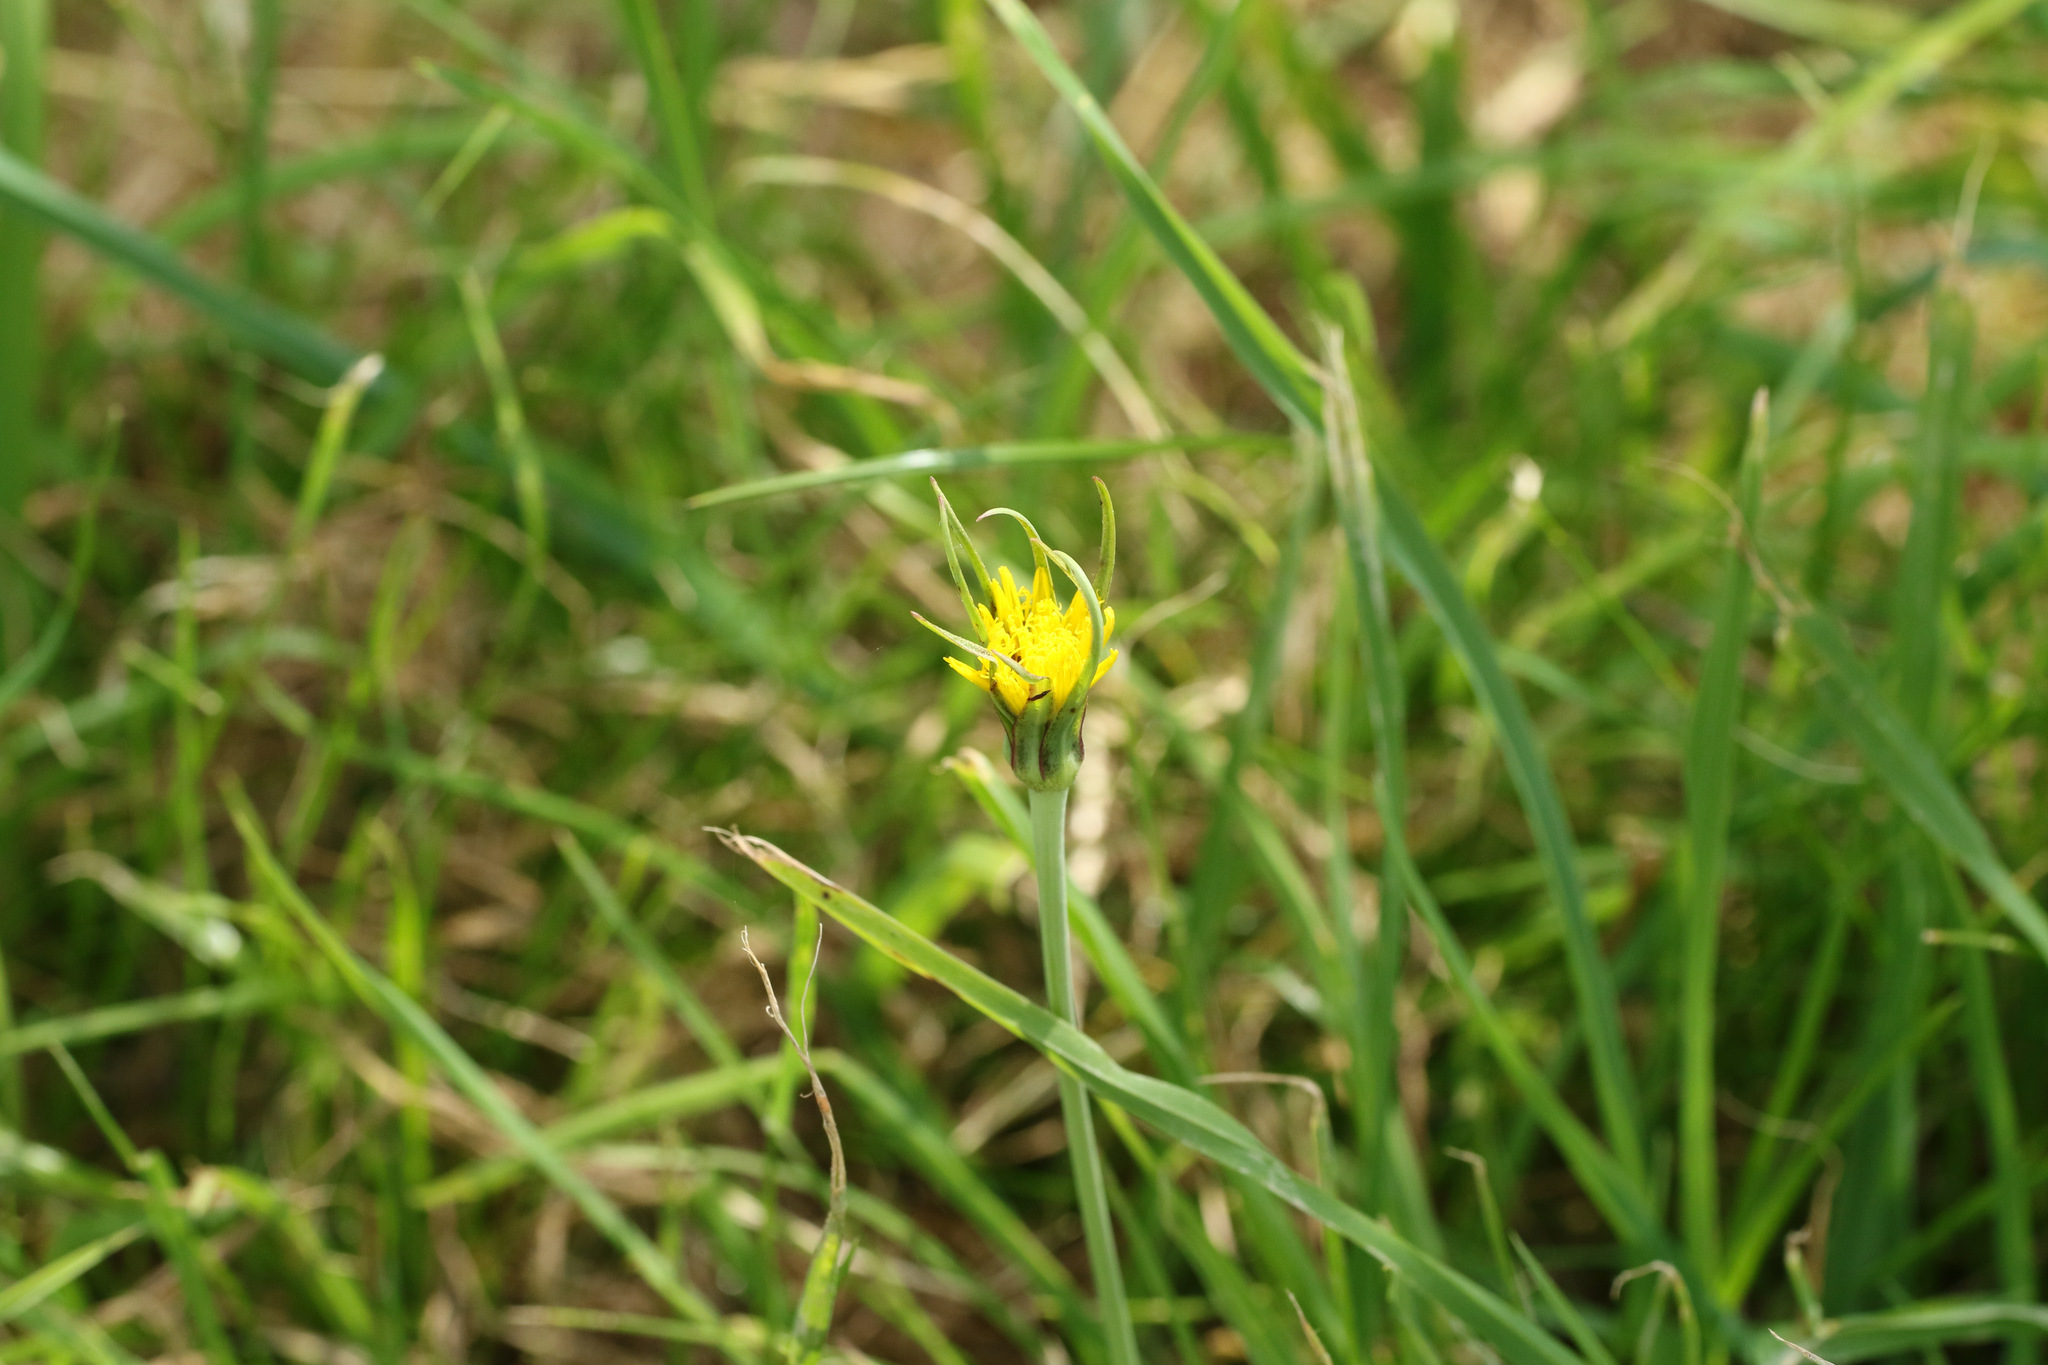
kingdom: Plantae
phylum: Tracheophyta
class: Magnoliopsida
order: Asterales
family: Asteraceae
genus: Tragopogon
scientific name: Tragopogon minor
